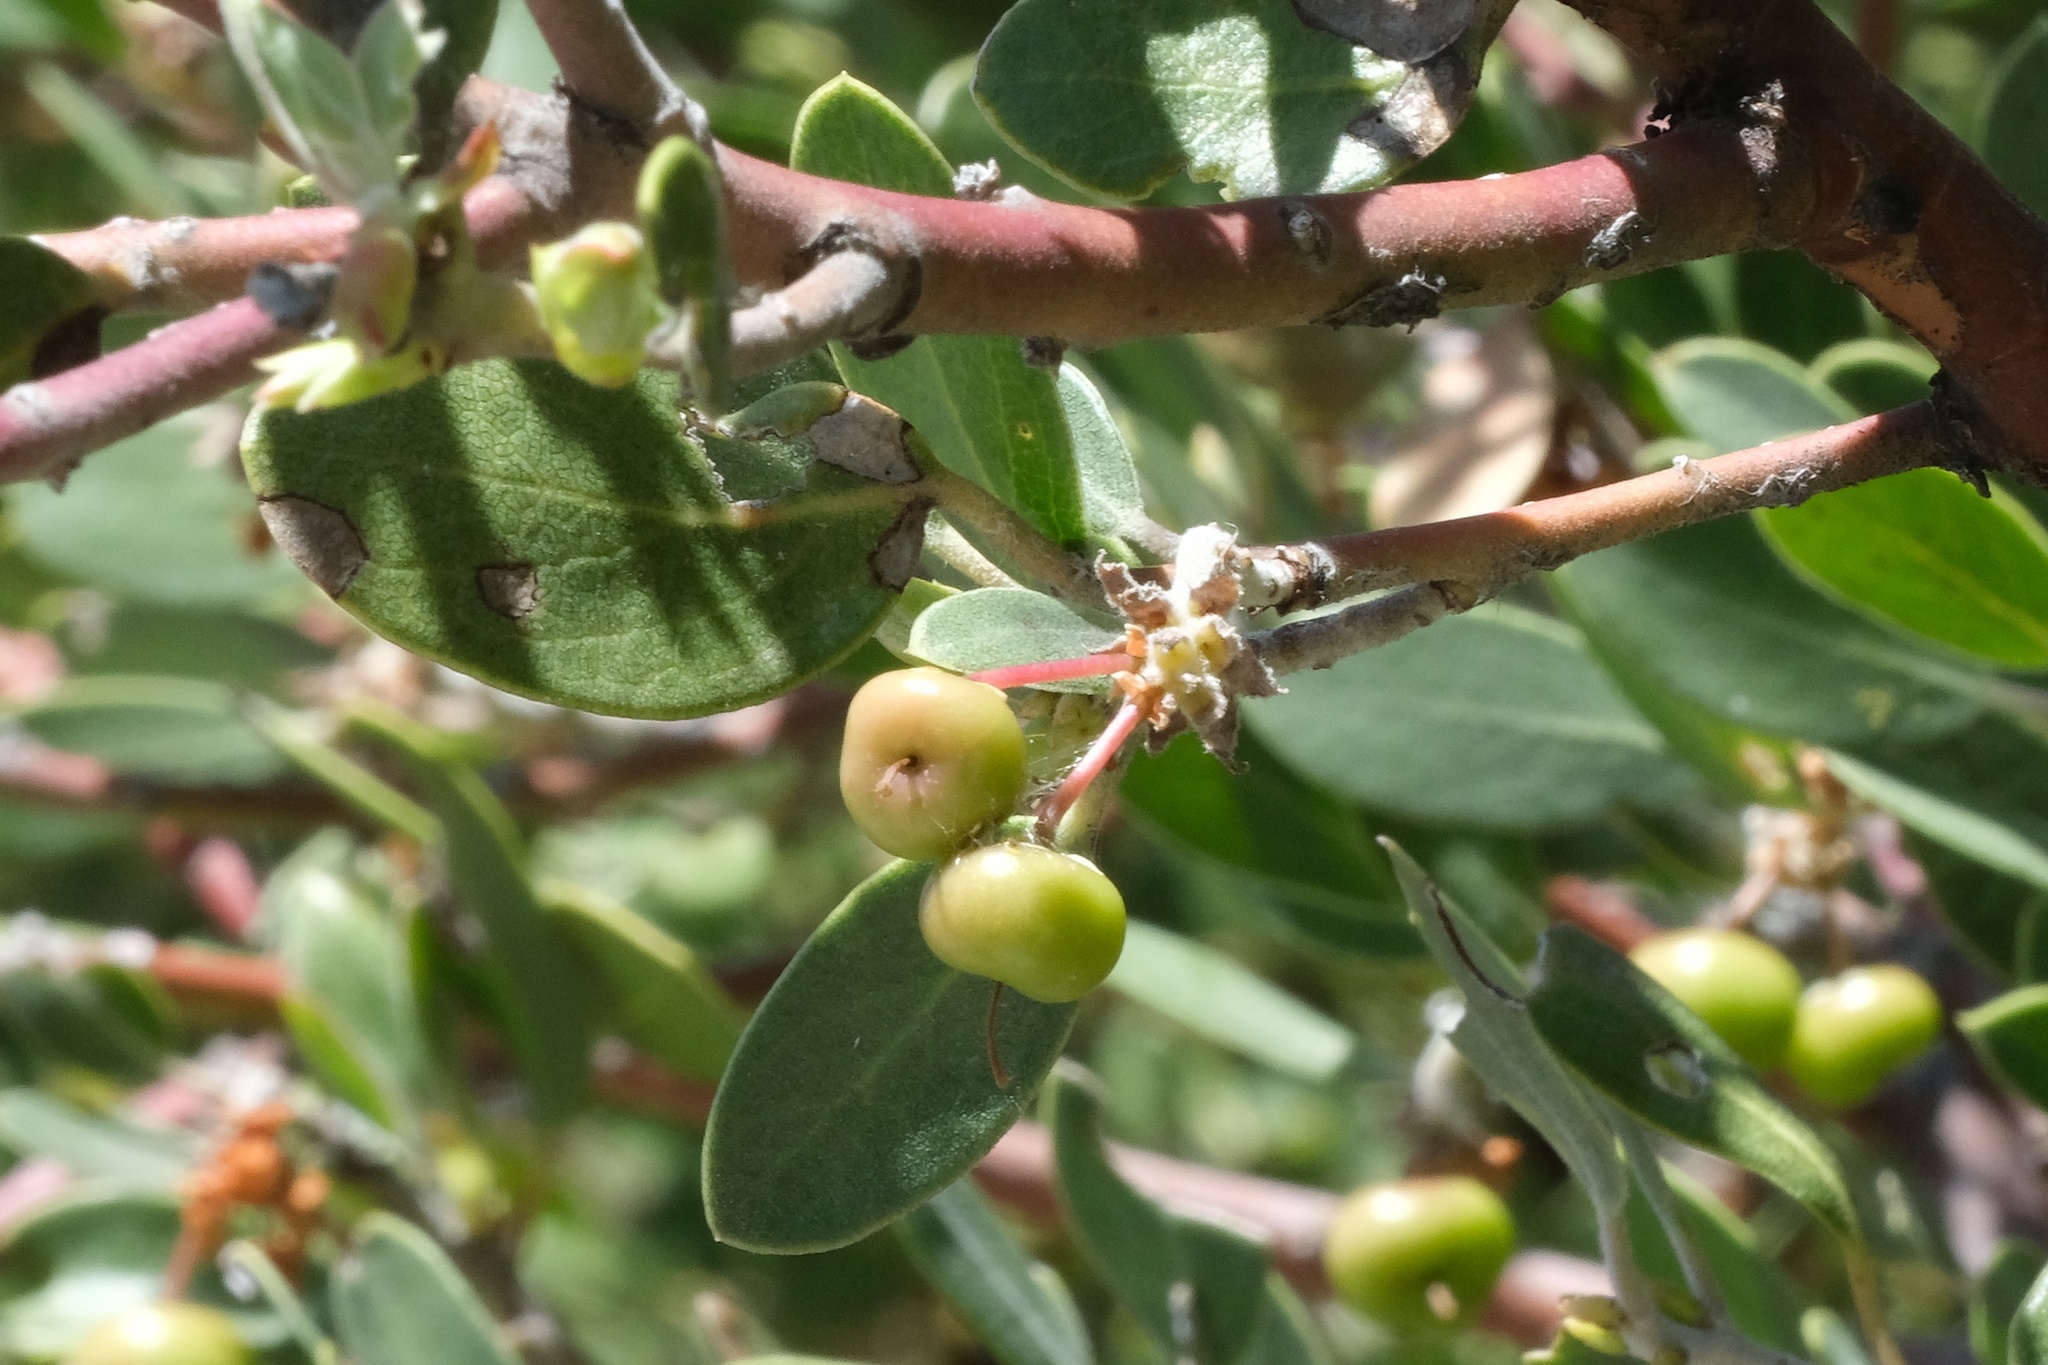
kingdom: Plantae
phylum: Tracheophyta
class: Magnoliopsida
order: Ericales
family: Ericaceae
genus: Arctostaphylos
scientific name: Arctostaphylos pungens
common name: Mexican manzanita
